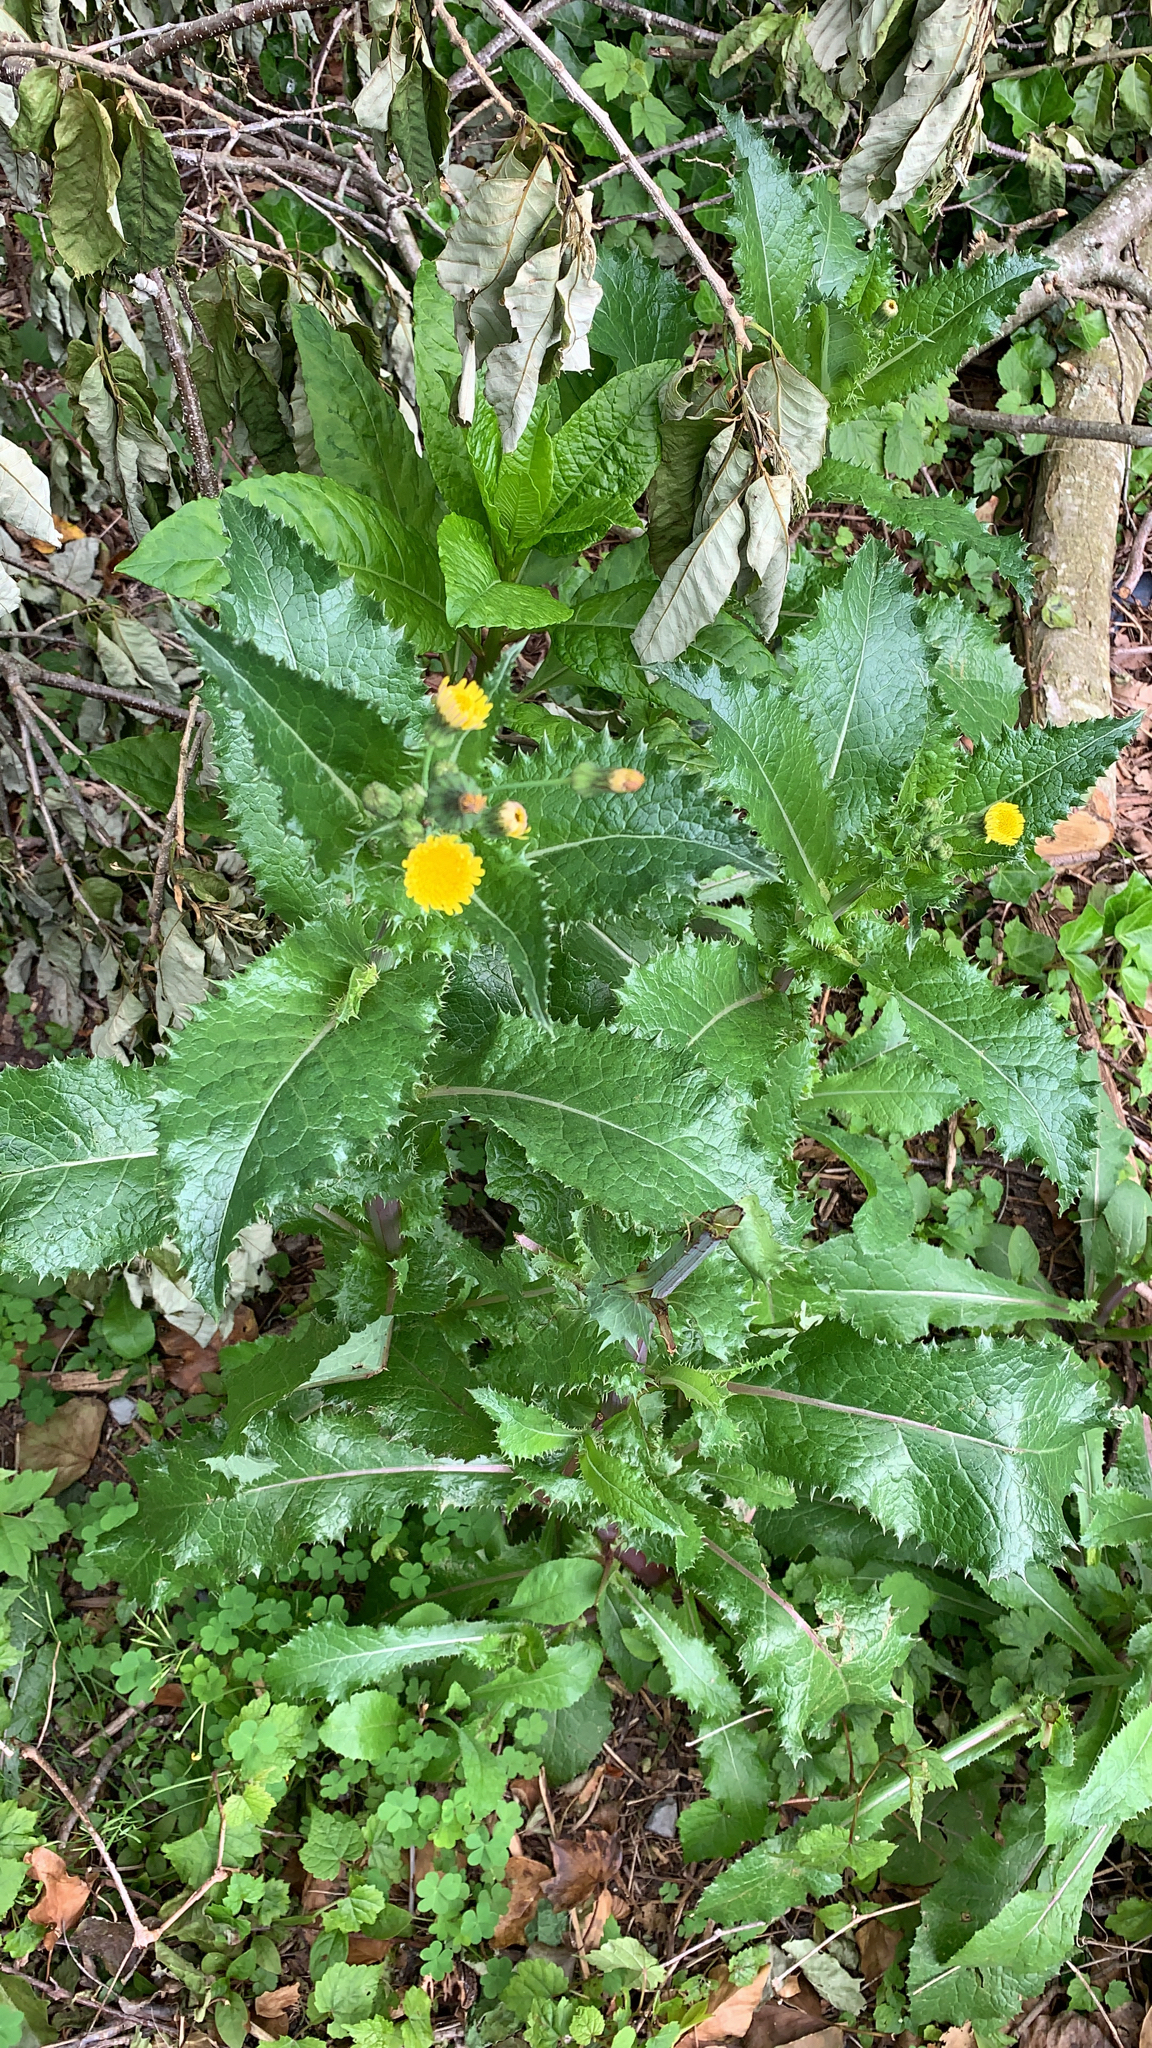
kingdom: Plantae
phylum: Tracheophyta
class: Magnoliopsida
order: Asterales
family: Asteraceae
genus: Sonchus
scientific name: Sonchus asper
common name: Prickly sow-thistle
